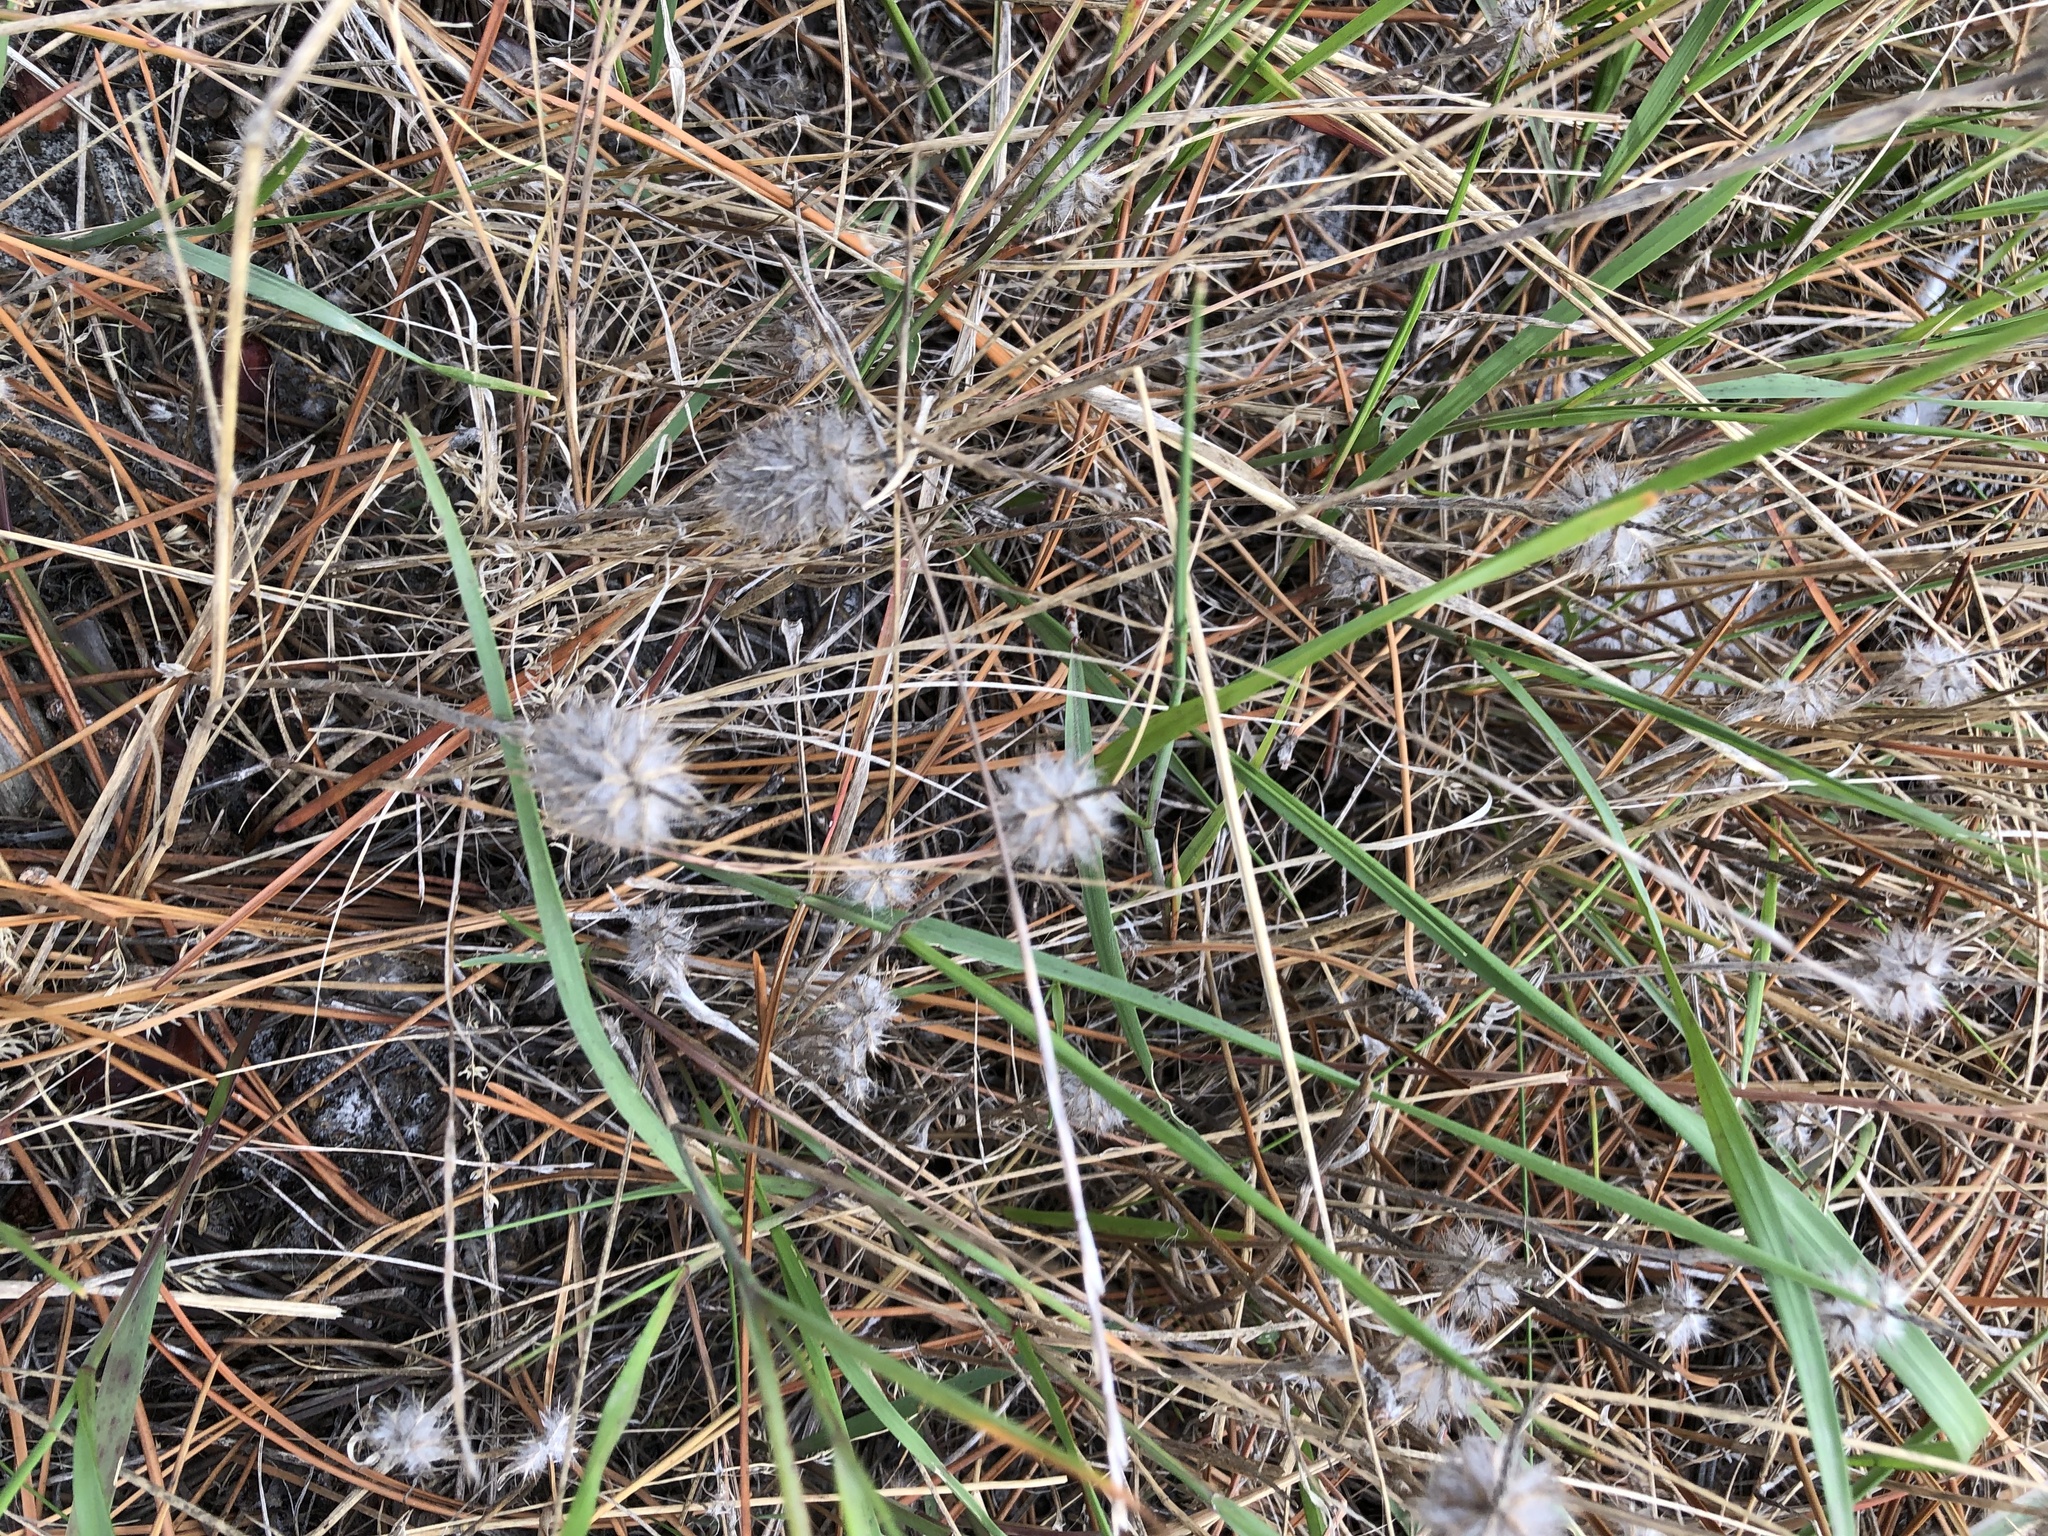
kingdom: Plantae
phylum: Tracheophyta
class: Magnoliopsida
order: Fabales
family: Fabaceae
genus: Trifolium
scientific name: Trifolium angustifolium
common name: Narrow clover
